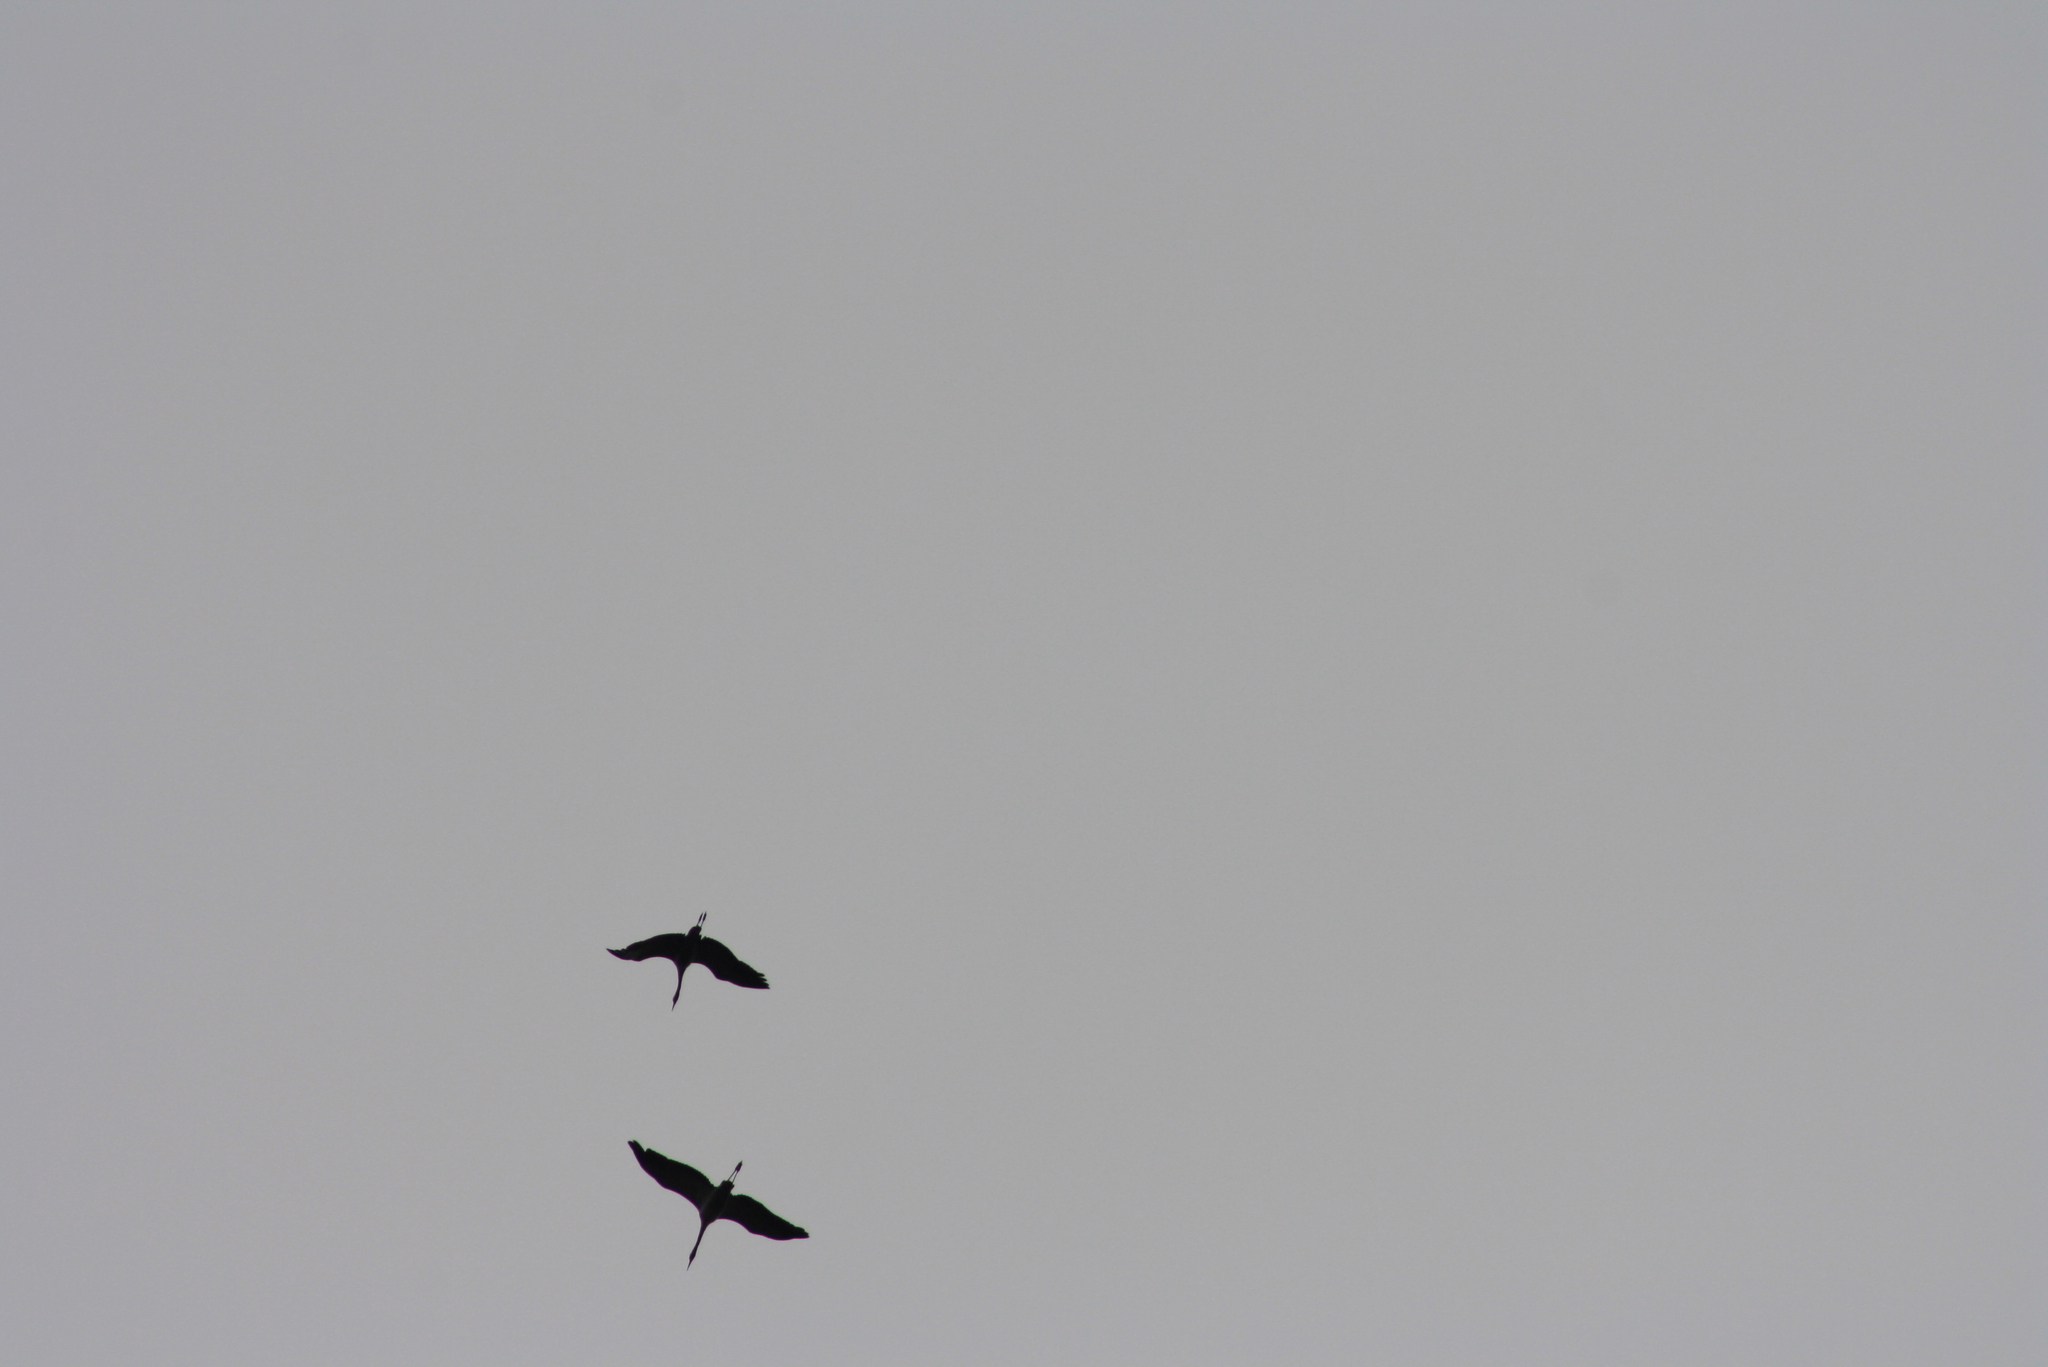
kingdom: Animalia
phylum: Chordata
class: Aves
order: Gruiformes
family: Gruidae
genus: Grus
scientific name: Grus grus
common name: Common crane
